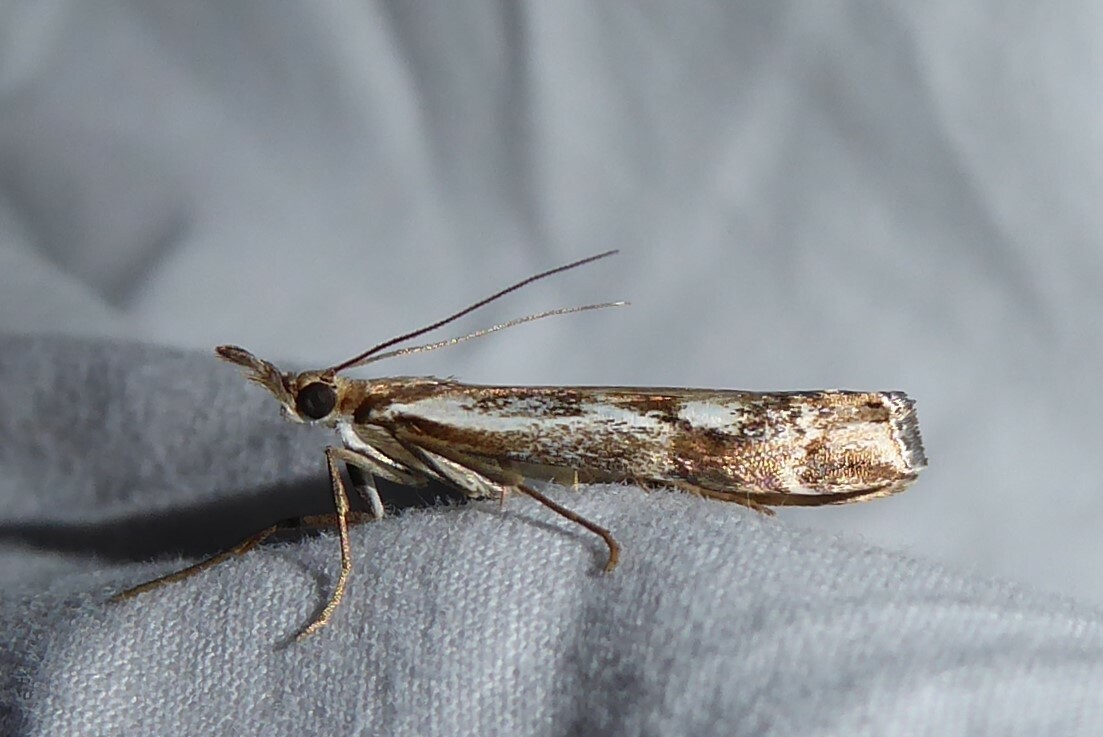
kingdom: Animalia
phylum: Arthropoda
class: Insecta
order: Lepidoptera
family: Crambidae
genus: Orocrambus
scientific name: Orocrambus vulgaris
